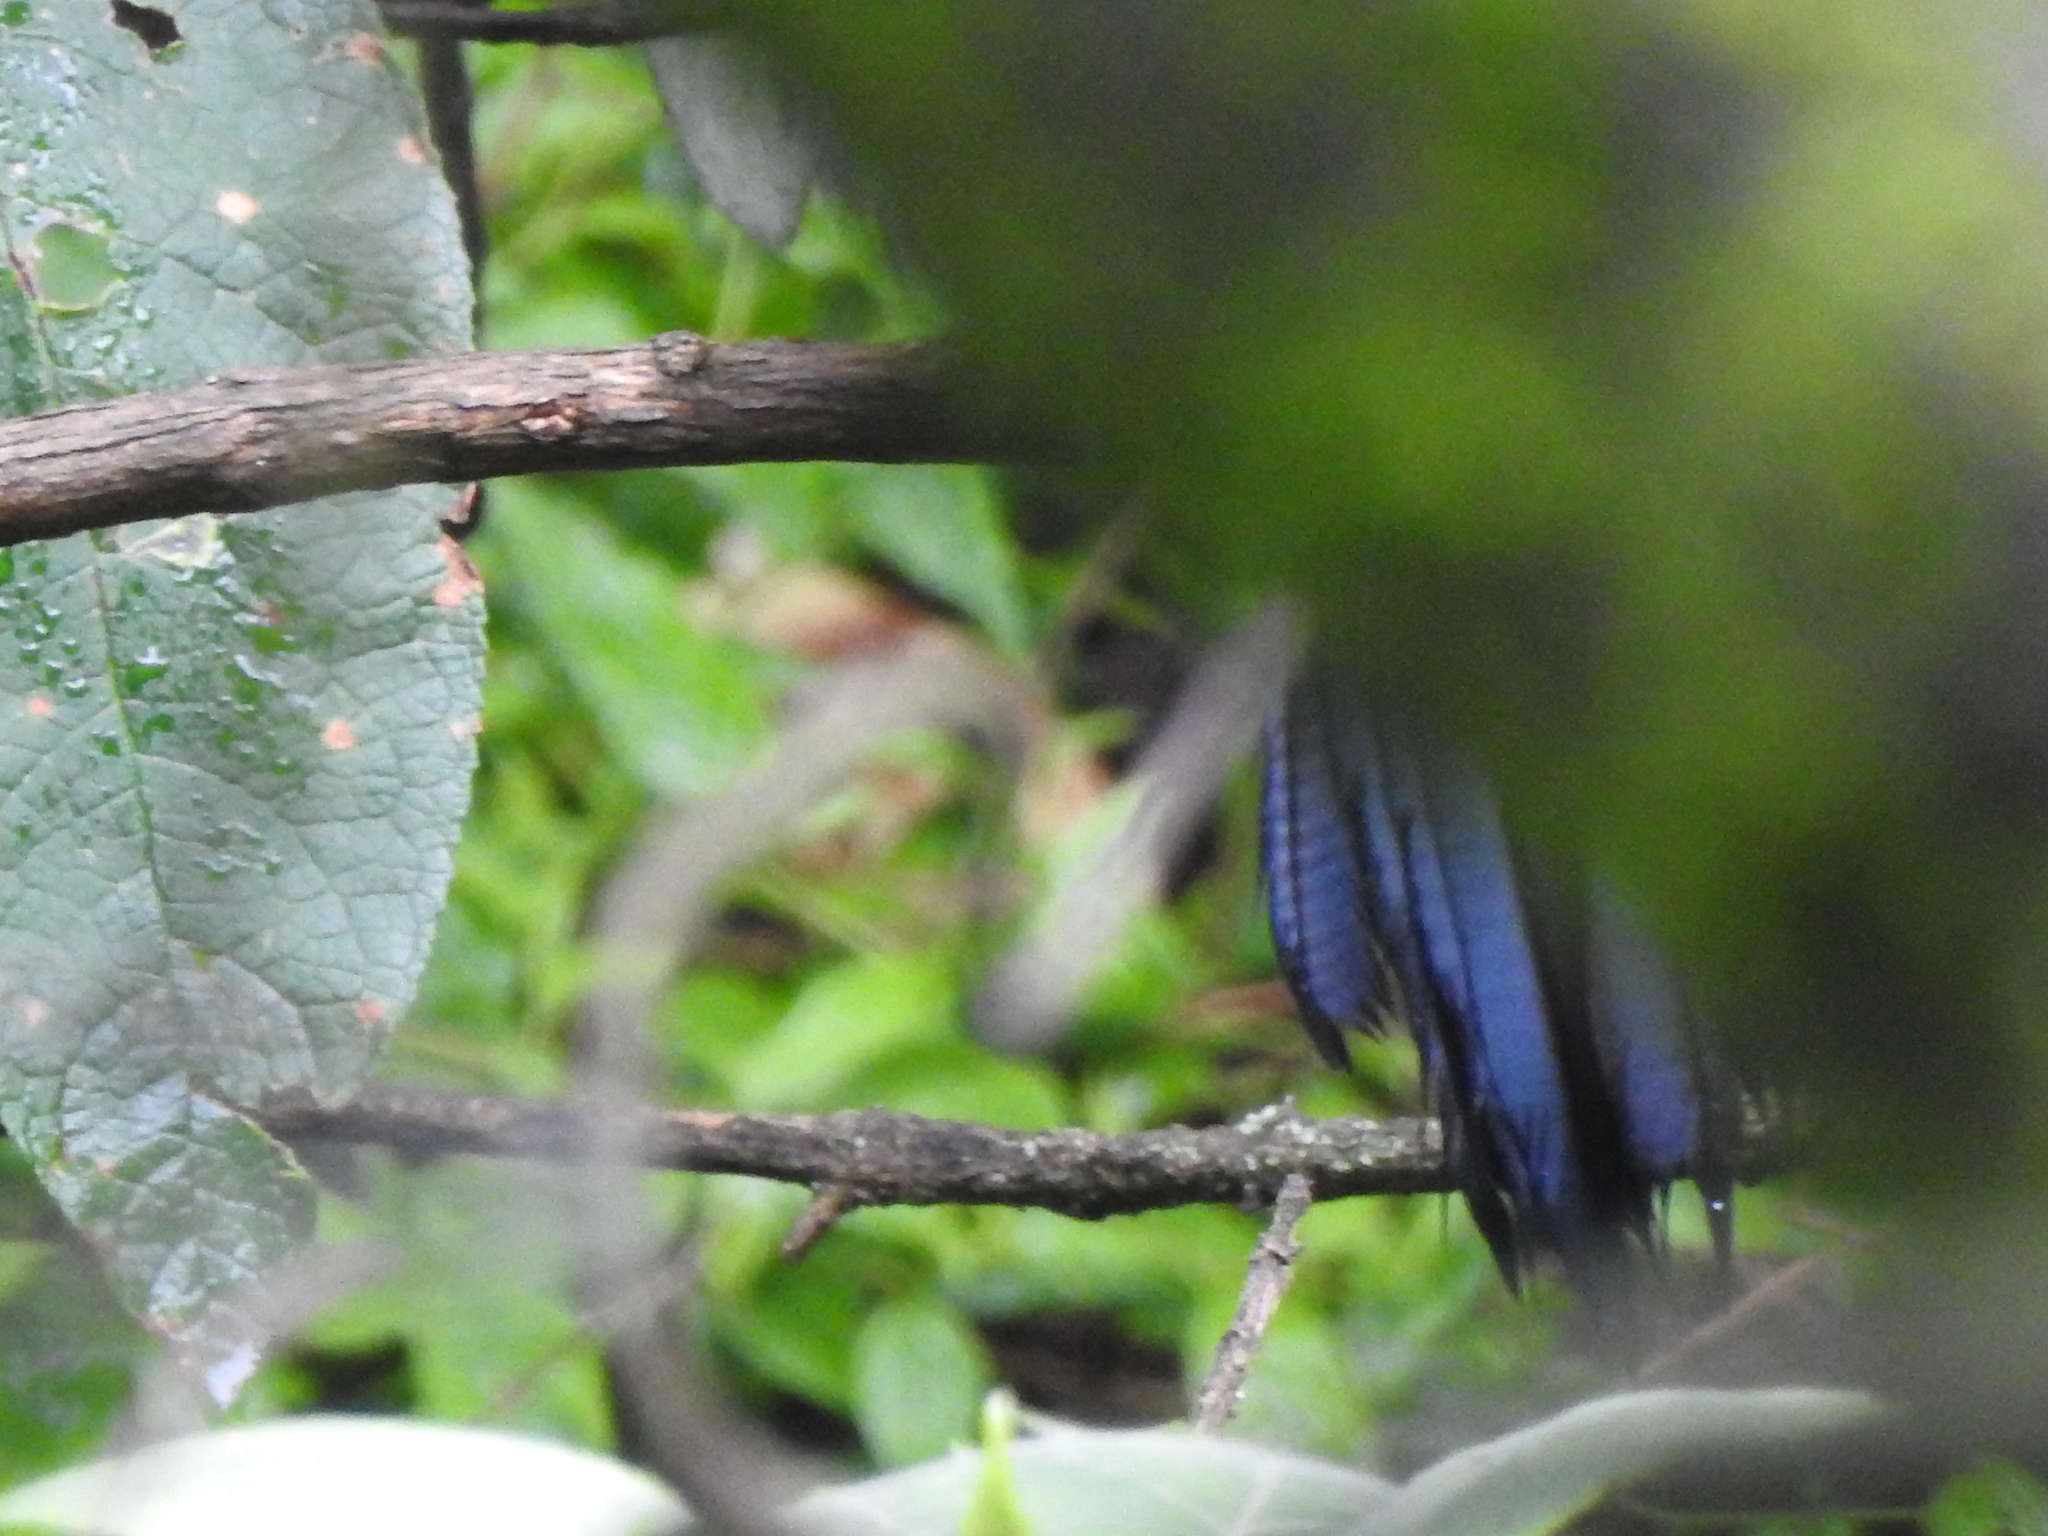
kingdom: Animalia
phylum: Chordata
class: Aves
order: Passeriformes
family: Mimidae
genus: Melanotis
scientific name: Melanotis caerulescens
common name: Blue mockingbird
